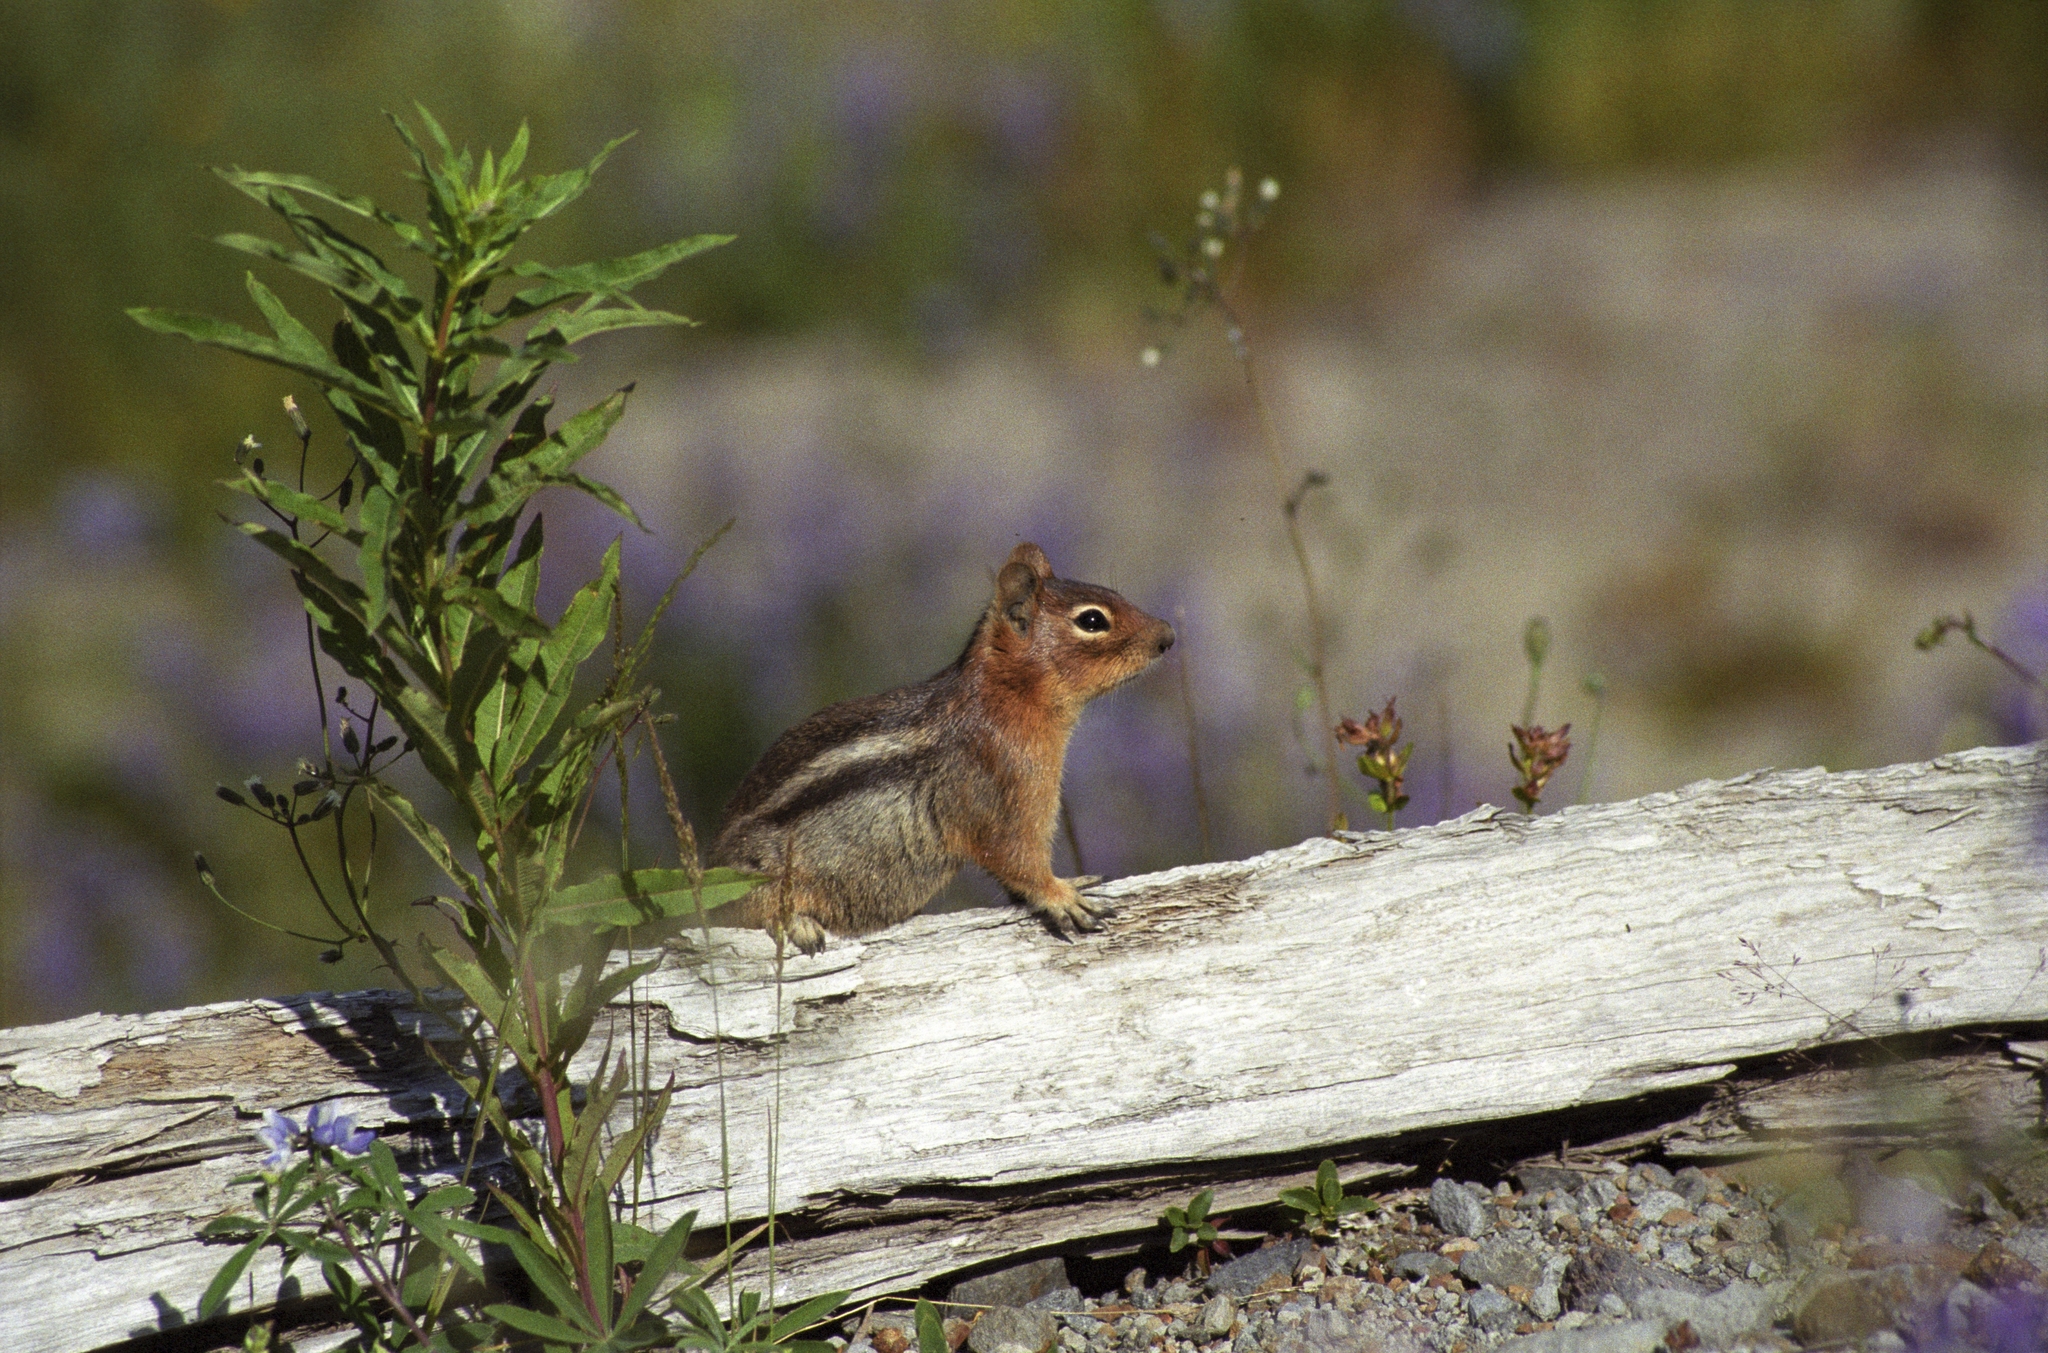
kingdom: Animalia
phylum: Chordata
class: Mammalia
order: Rodentia
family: Sciuridae
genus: Callospermophilus
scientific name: Callospermophilus saturatus
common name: Cascade golden-mantled ground squirrel
